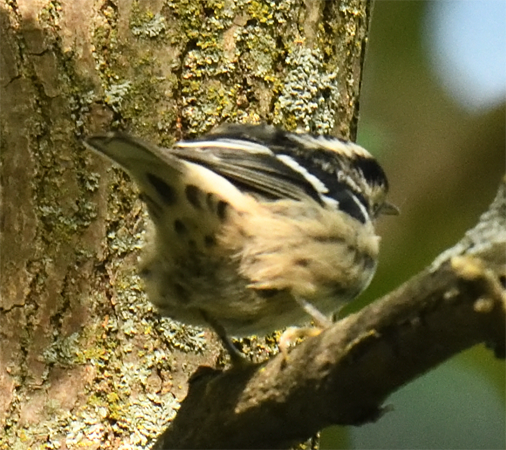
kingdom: Animalia
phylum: Chordata
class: Aves
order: Passeriformes
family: Parulidae
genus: Mniotilta
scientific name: Mniotilta varia
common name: Black-and-white warbler
